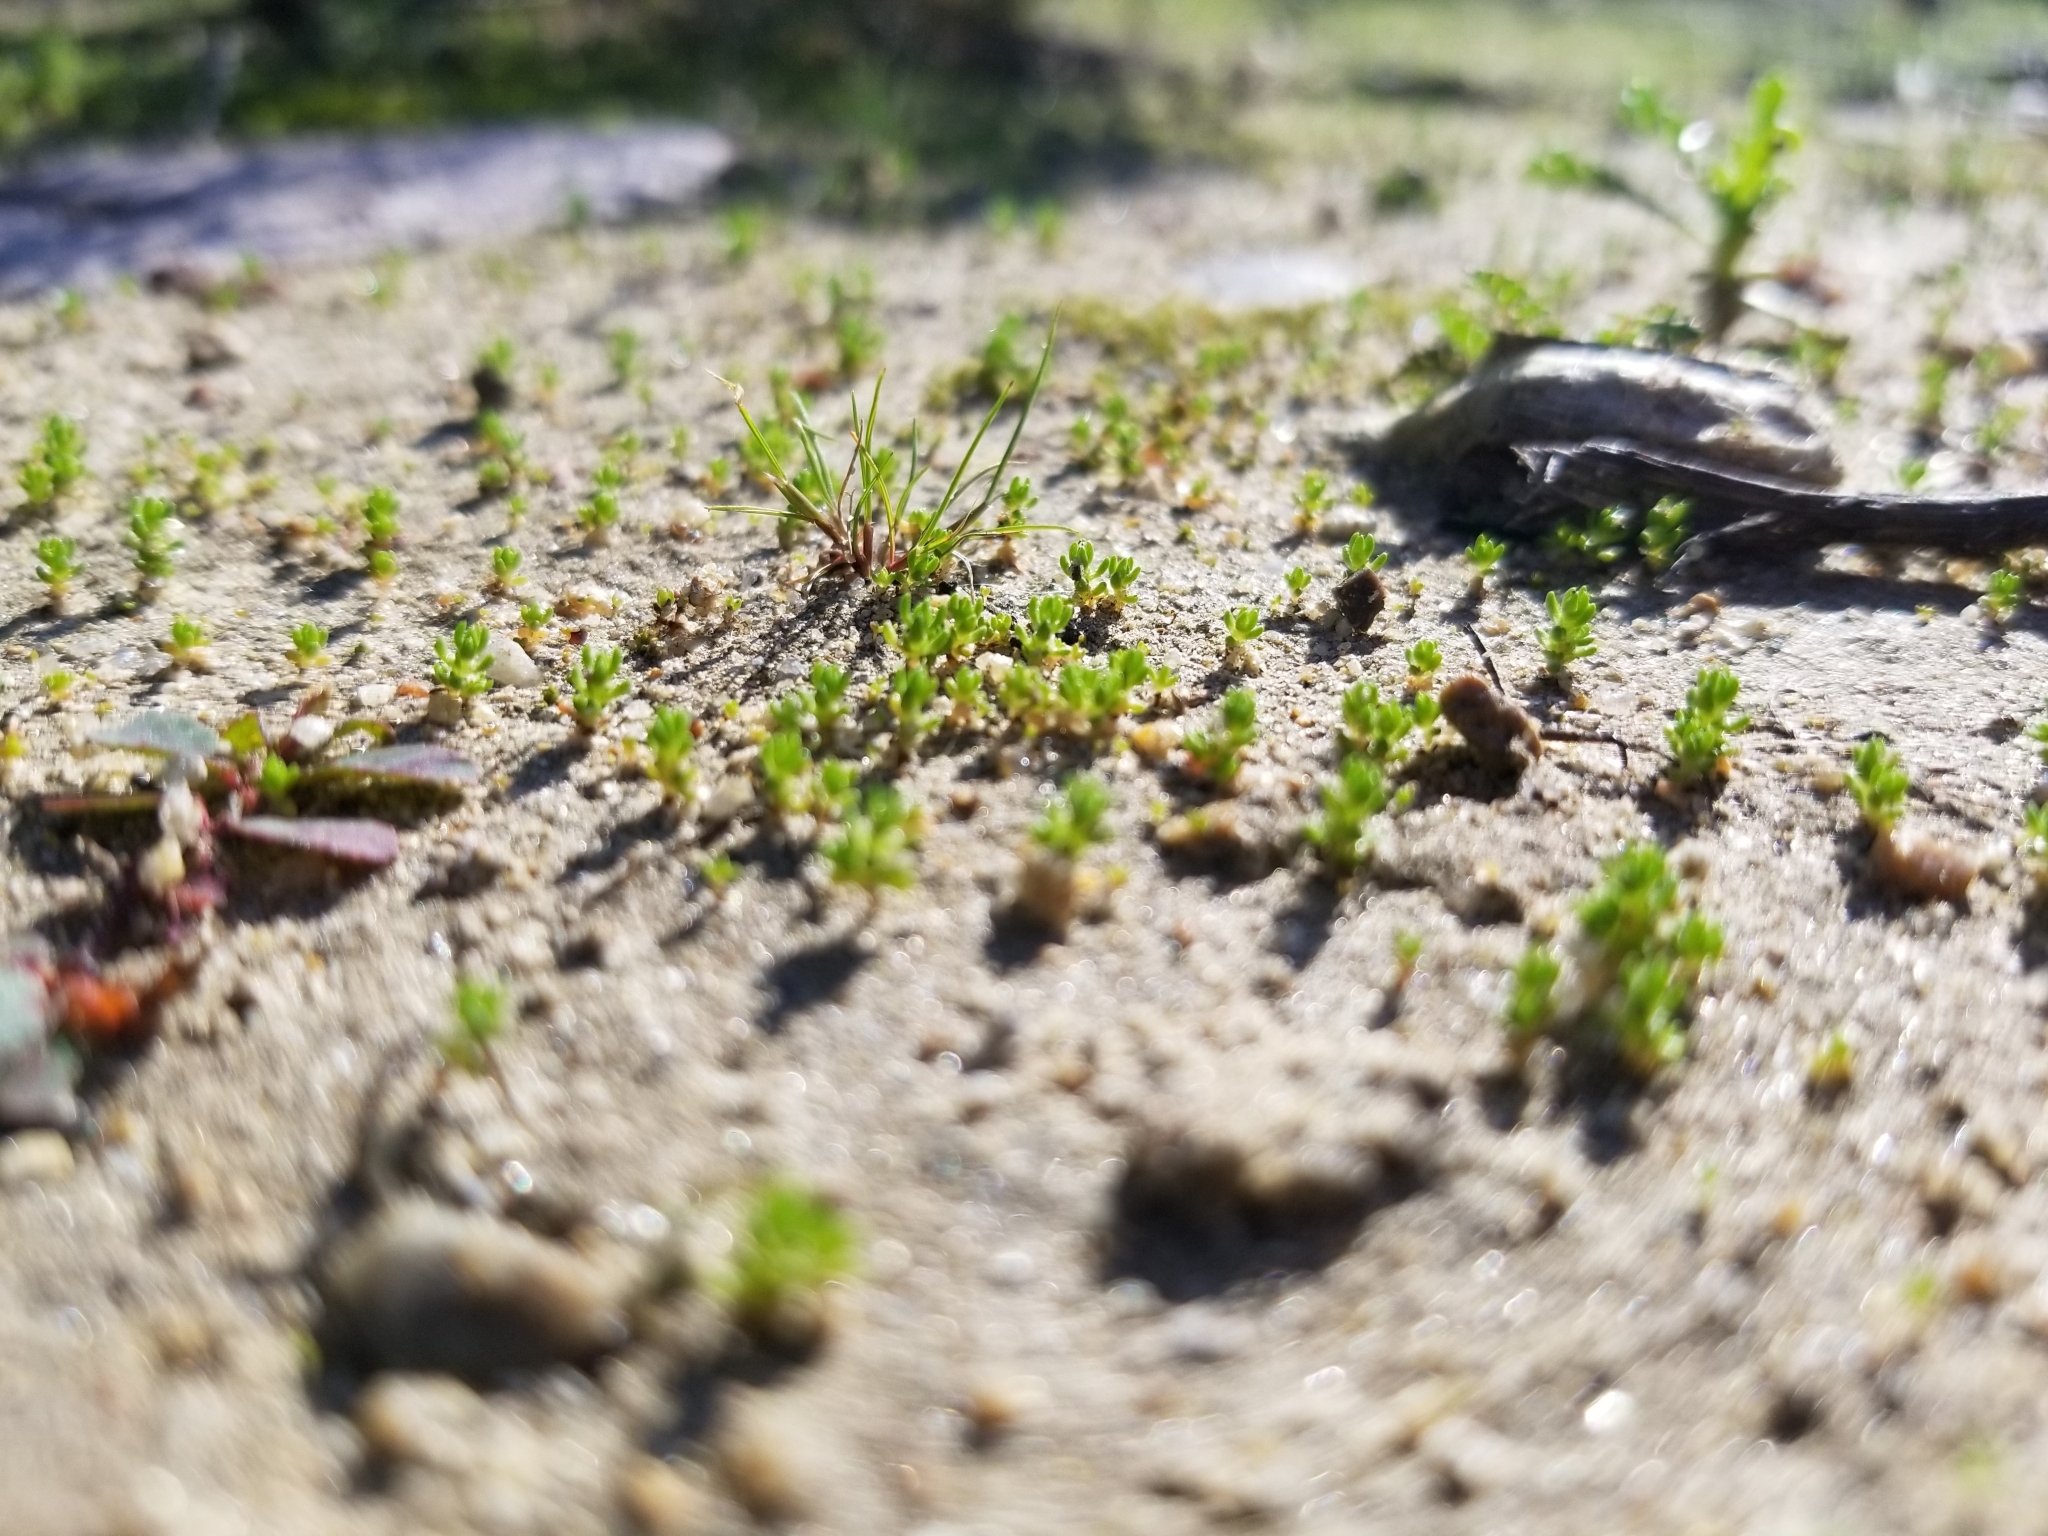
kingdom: Plantae
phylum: Tracheophyta
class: Magnoliopsida
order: Saxifragales
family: Crassulaceae
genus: Crassula
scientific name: Crassula connata
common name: Erect pygmyweed
